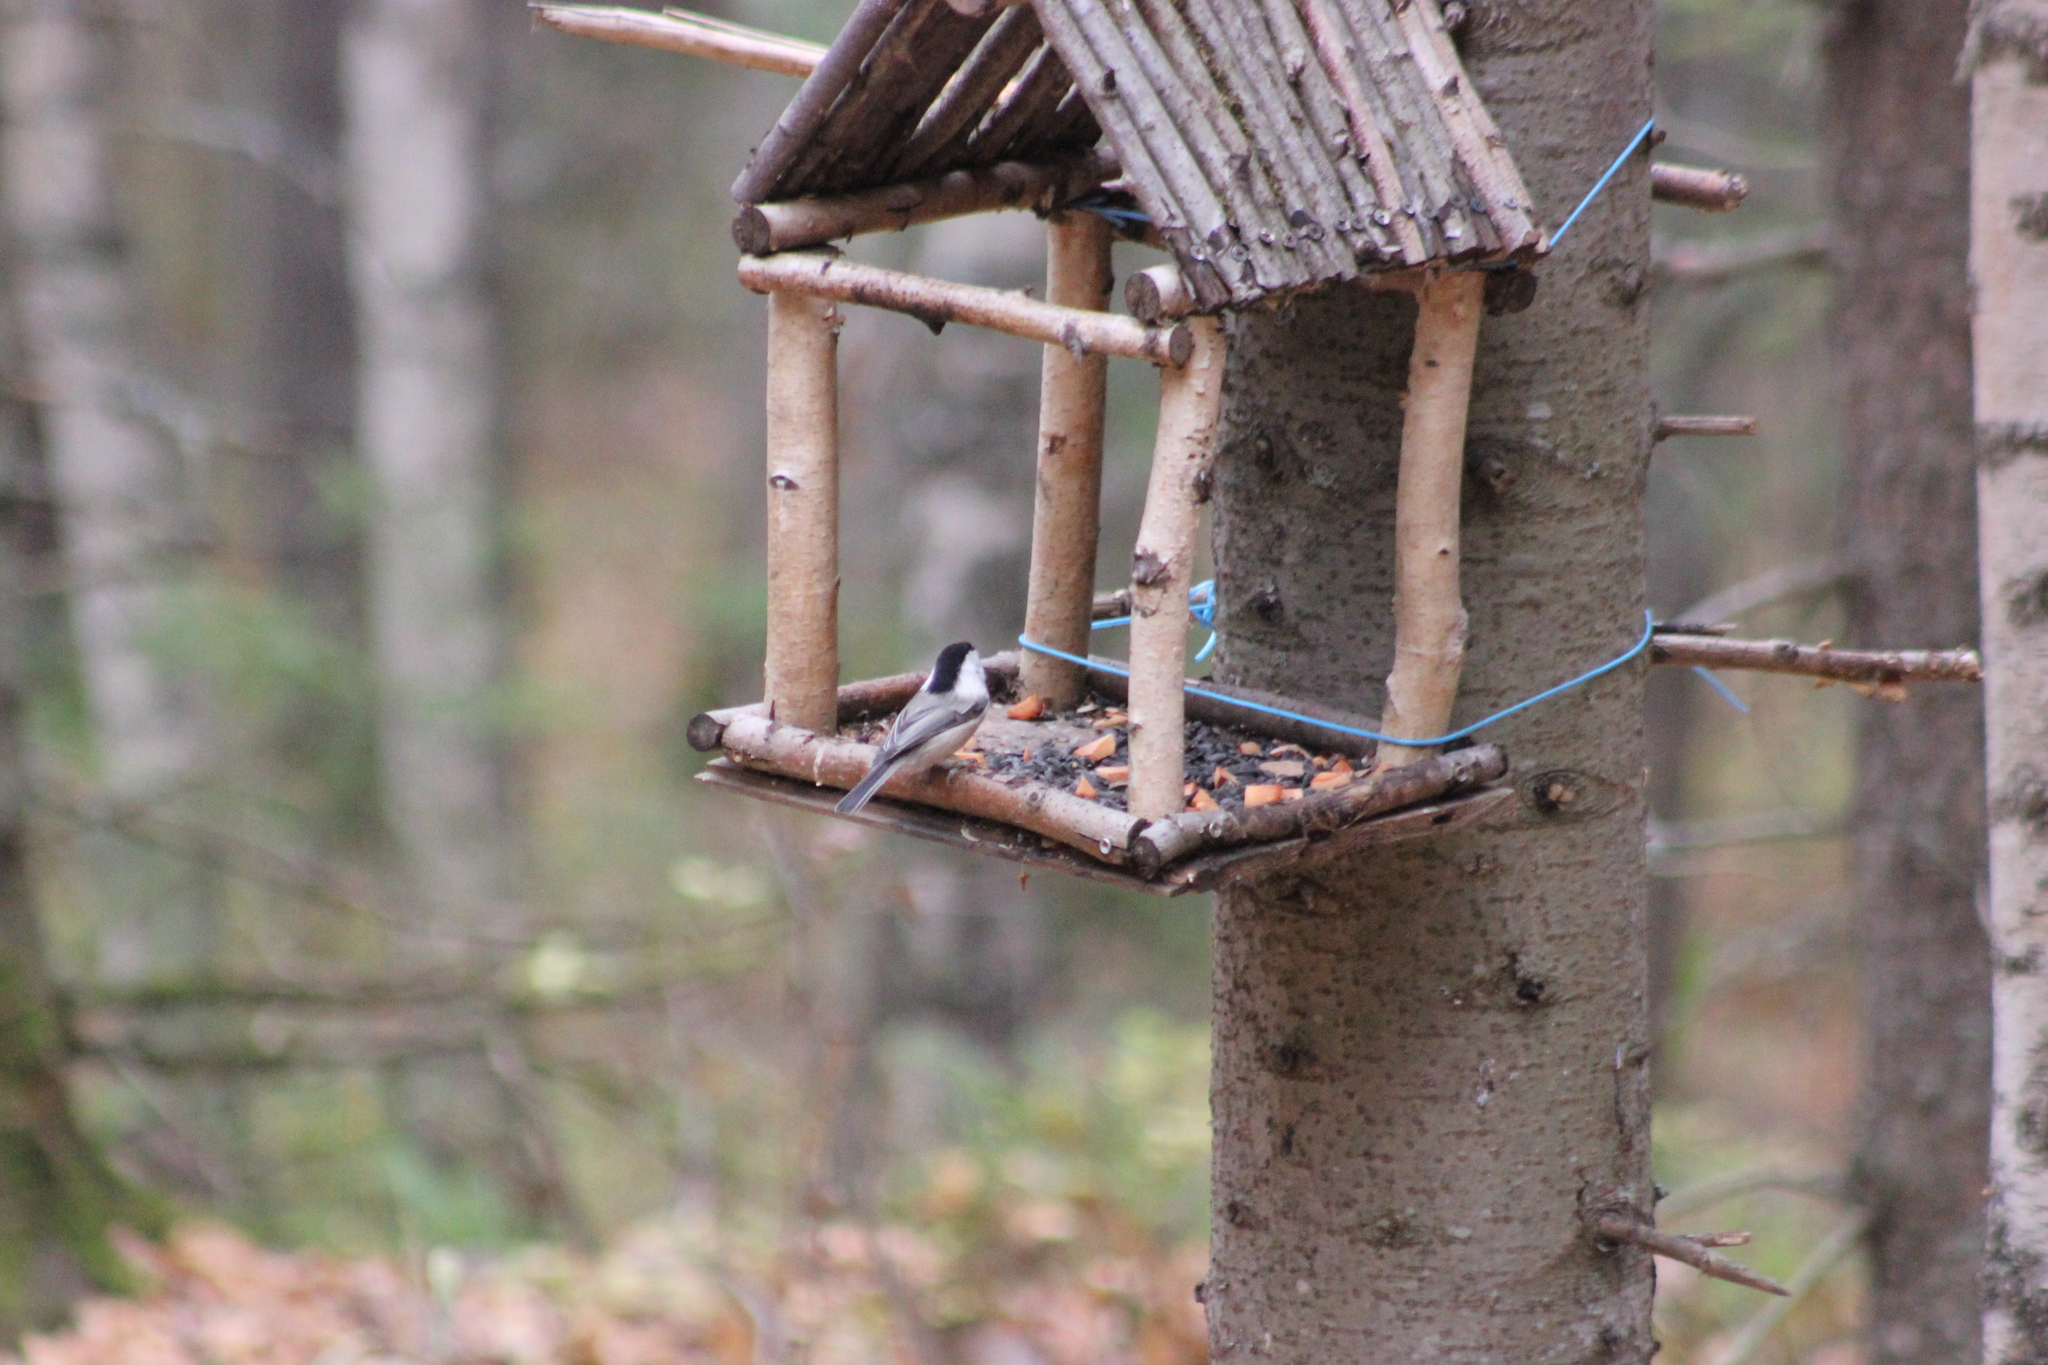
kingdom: Animalia
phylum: Chordata
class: Aves
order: Passeriformes
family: Paridae
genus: Poecile
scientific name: Poecile montanus
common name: Willow tit
